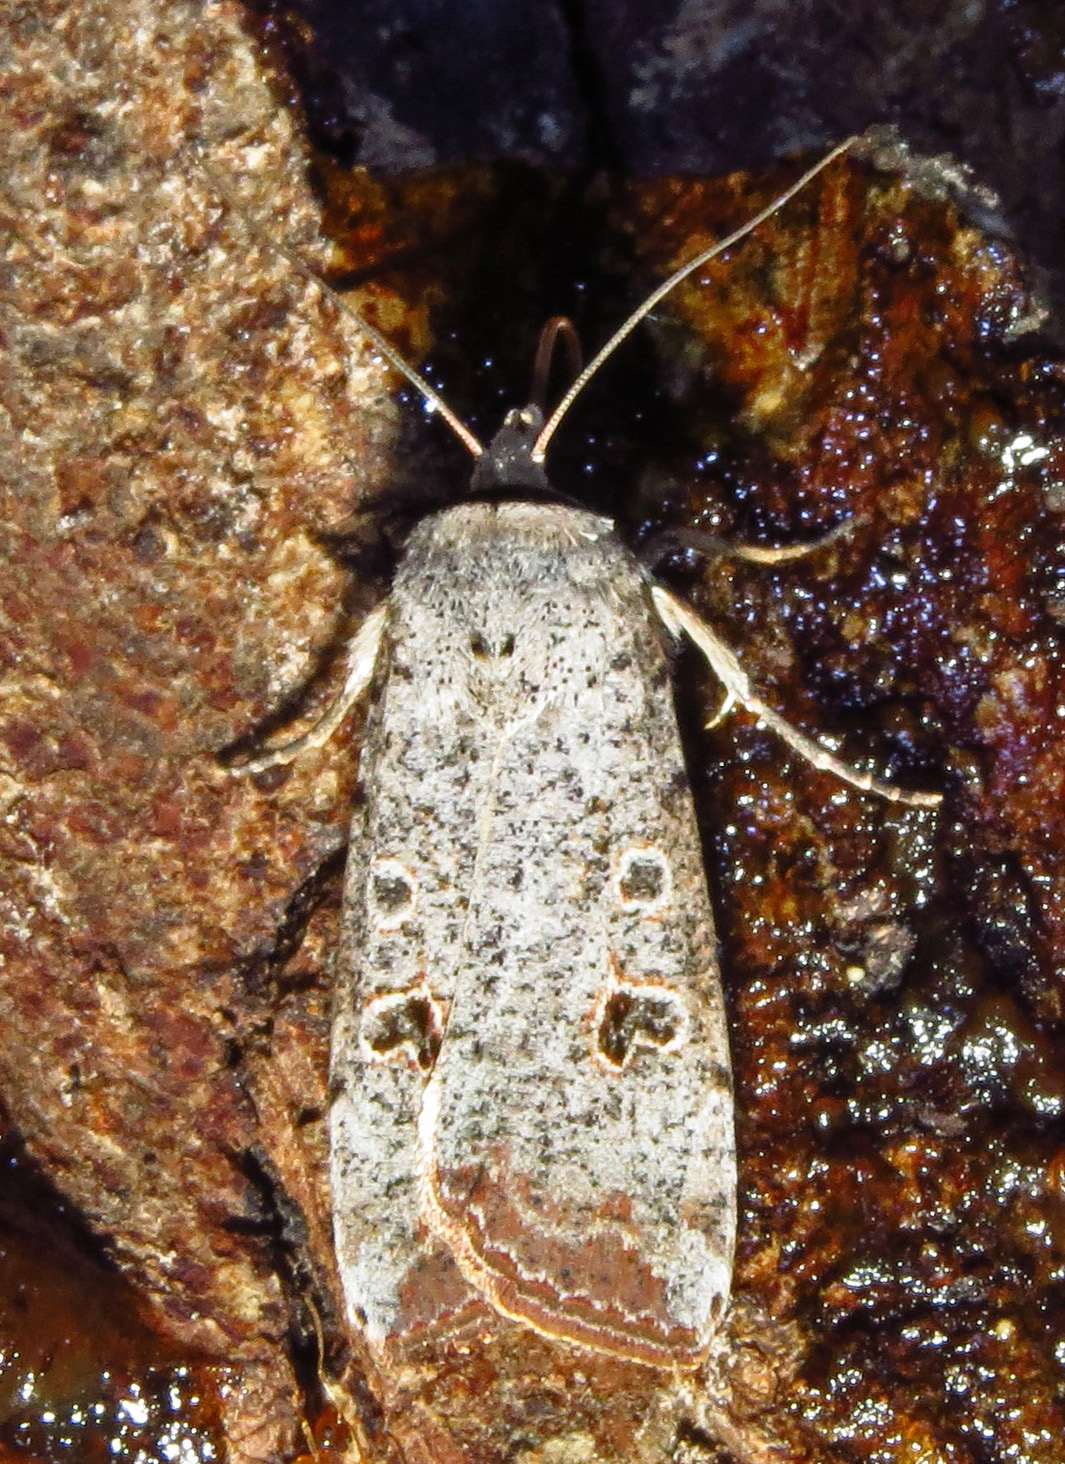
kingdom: Animalia
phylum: Arthropoda
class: Insecta
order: Lepidoptera
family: Noctuidae
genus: Anicla
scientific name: Anicla infecta
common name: Green cutworm
